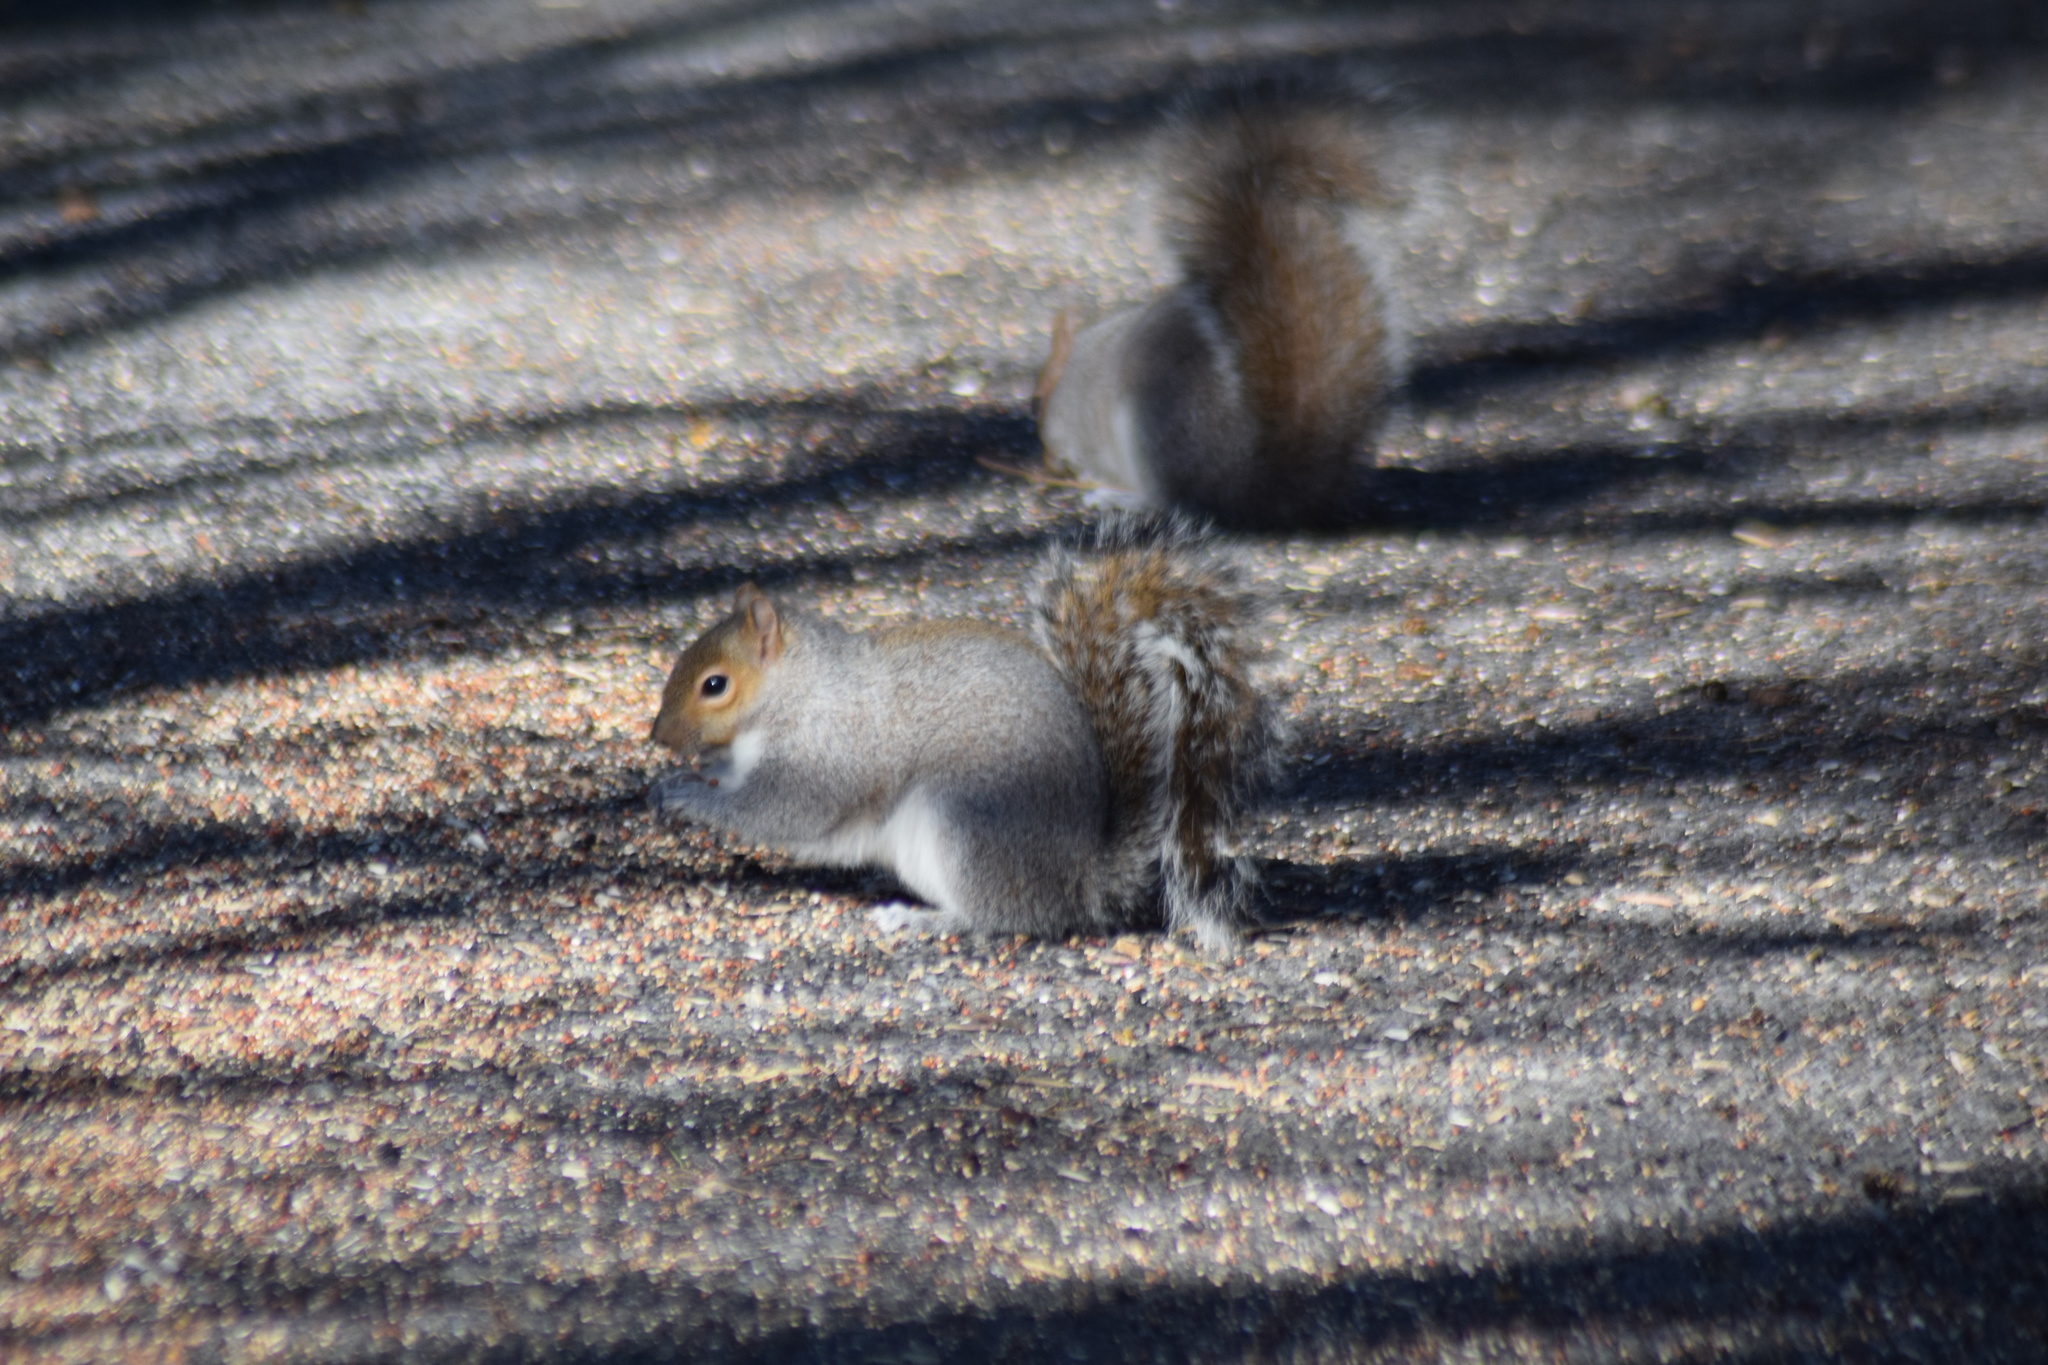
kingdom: Animalia
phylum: Chordata
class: Mammalia
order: Rodentia
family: Sciuridae
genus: Sciurus
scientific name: Sciurus carolinensis
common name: Eastern gray squirrel
